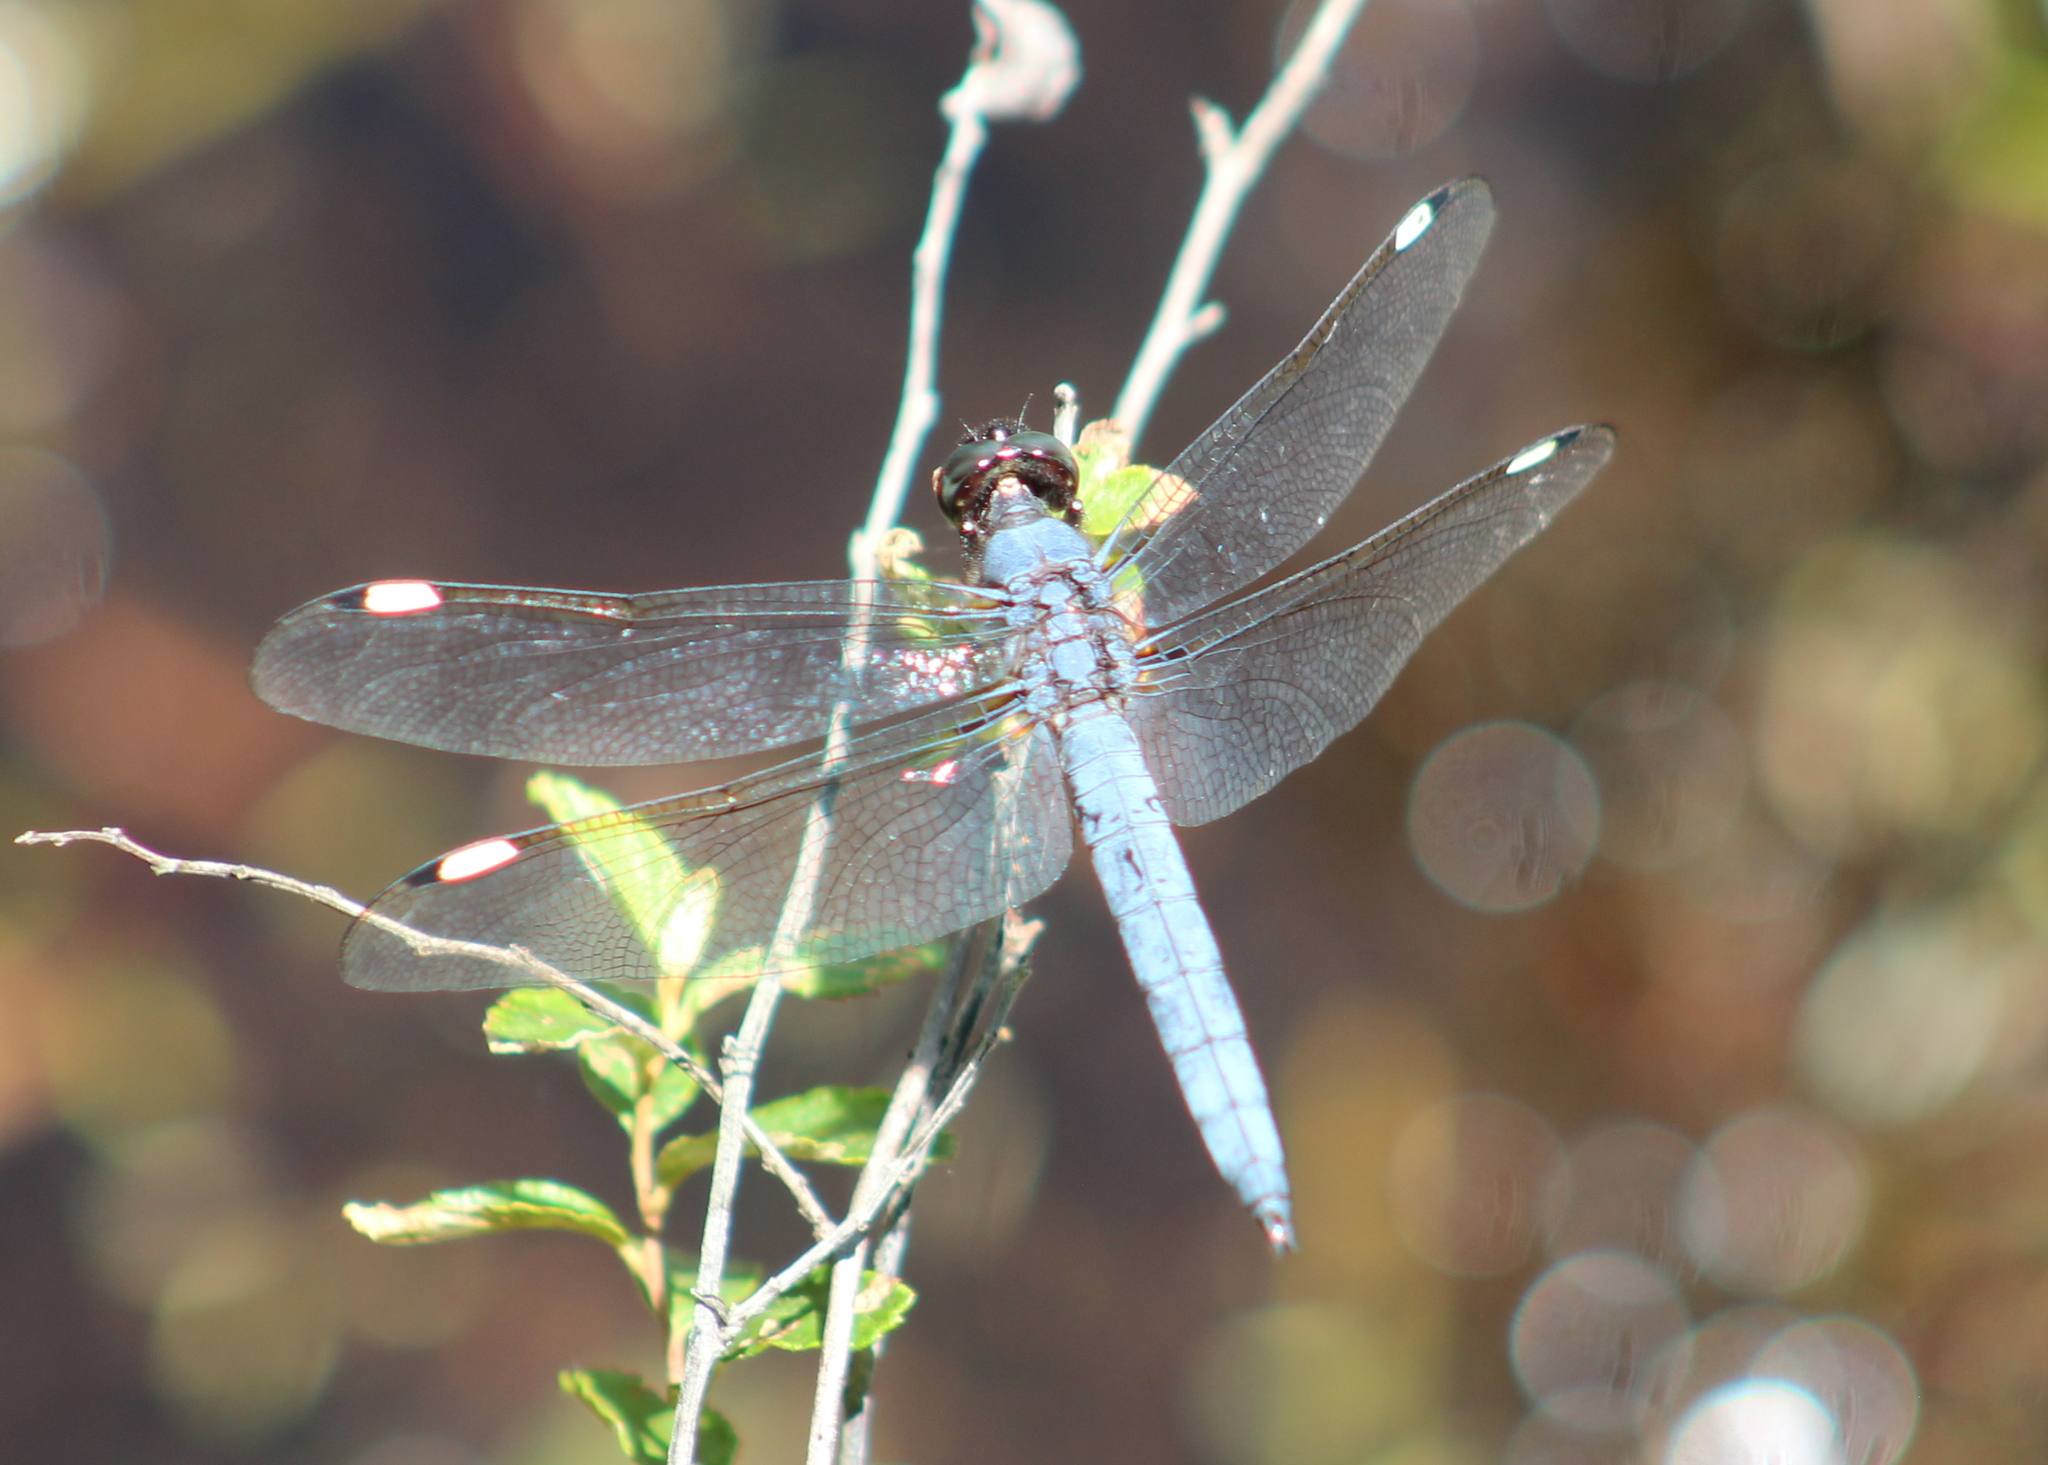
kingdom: Animalia
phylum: Arthropoda
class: Insecta
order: Odonata
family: Libellulidae
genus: Libellula
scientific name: Libellula cyanea
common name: Spangled skimmer
